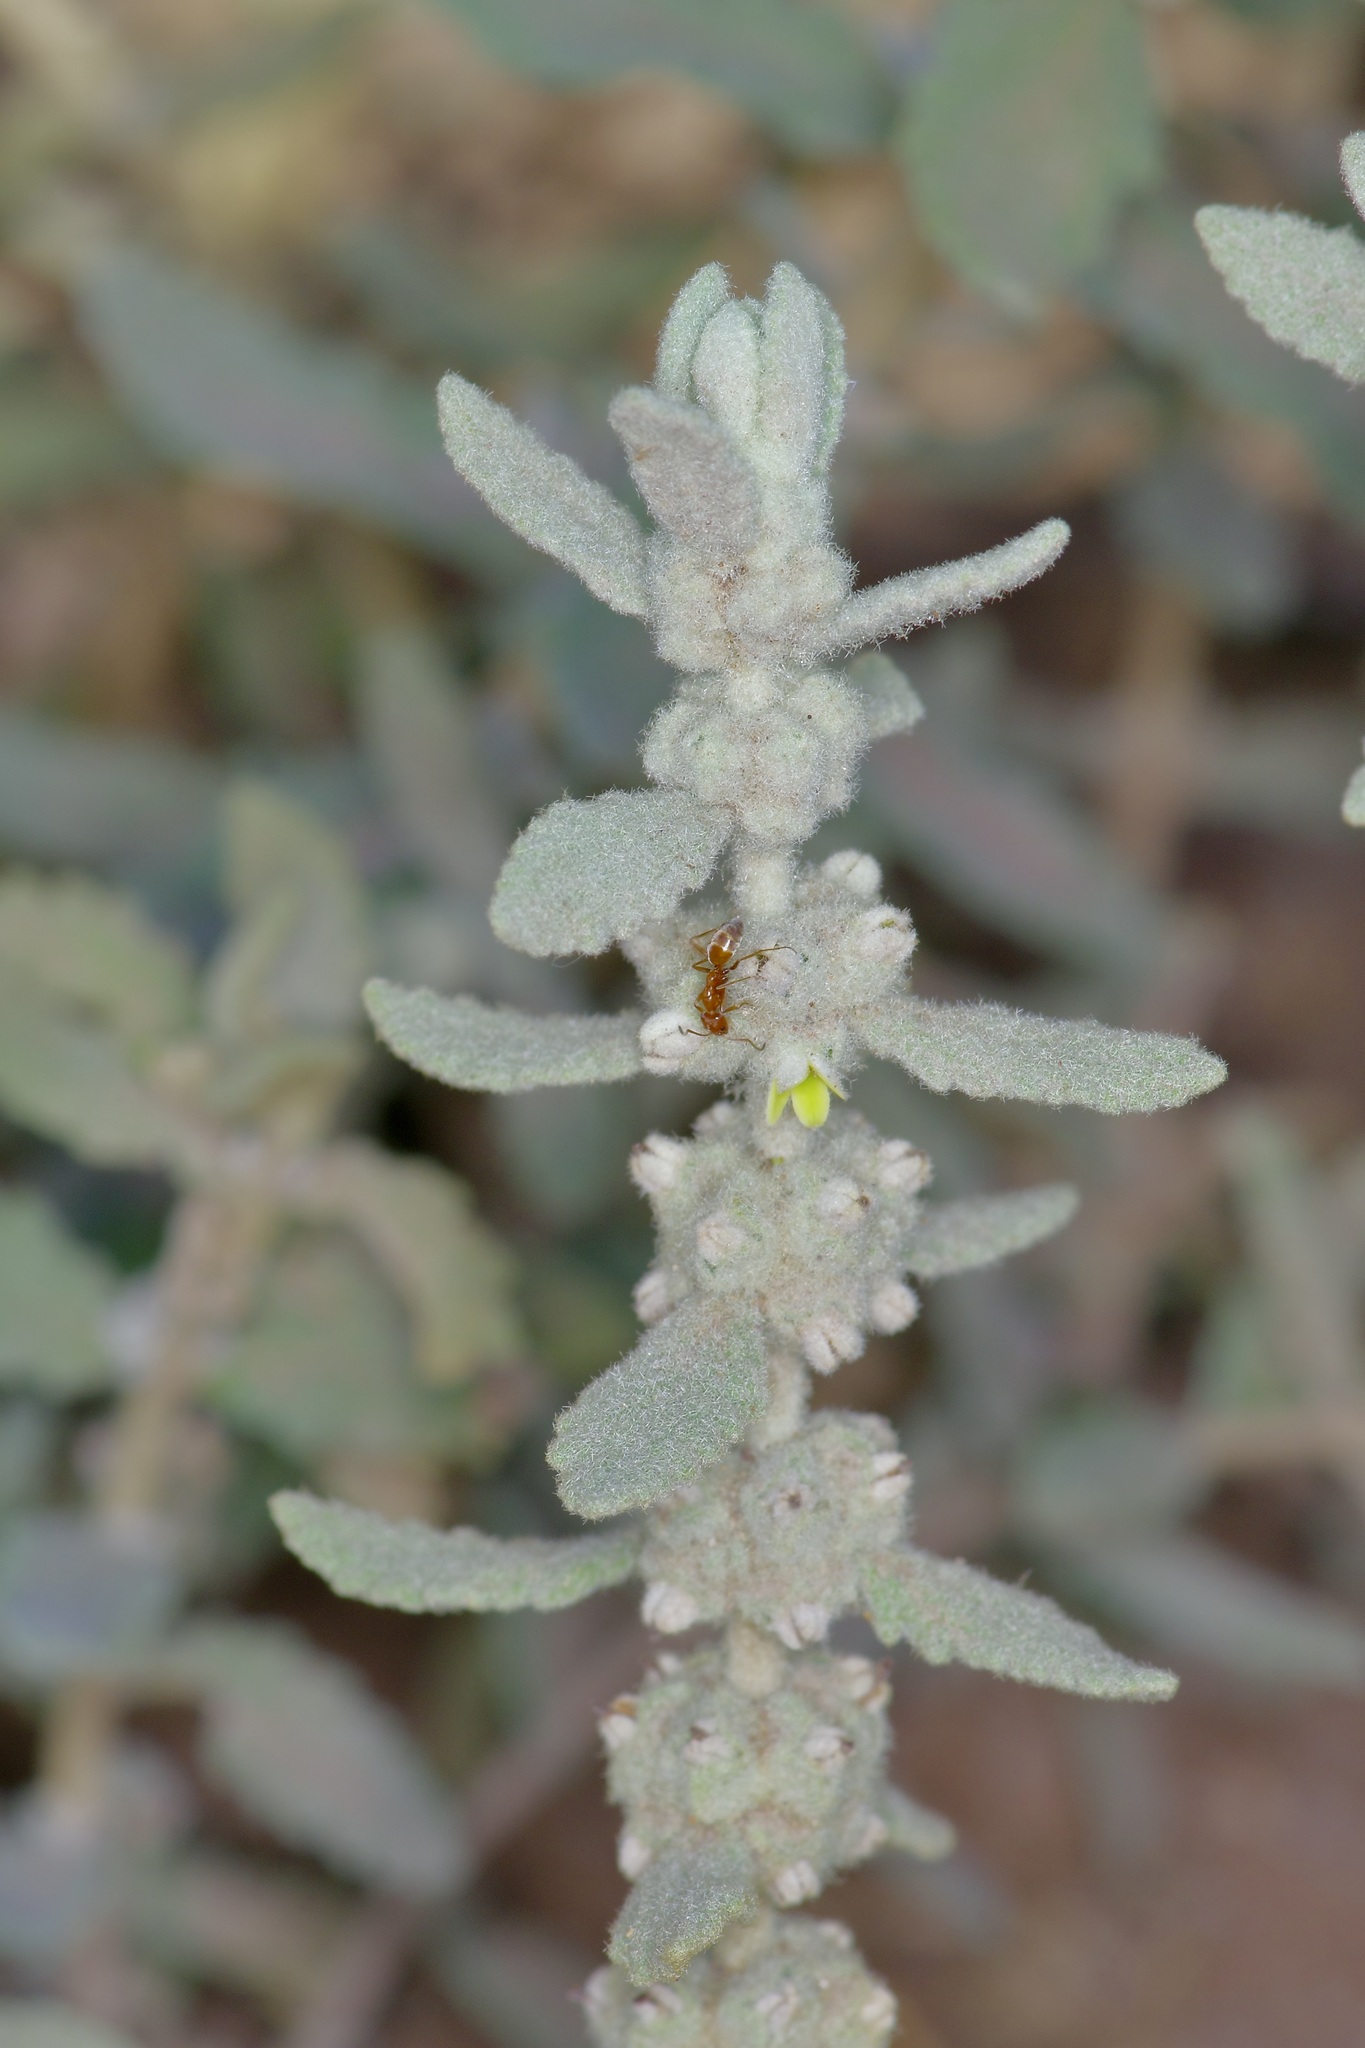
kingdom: Plantae
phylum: Tracheophyta
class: Magnoliopsida
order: Lamiales
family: Scrophulariaceae
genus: Buddleja
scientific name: Buddleja scordioides
